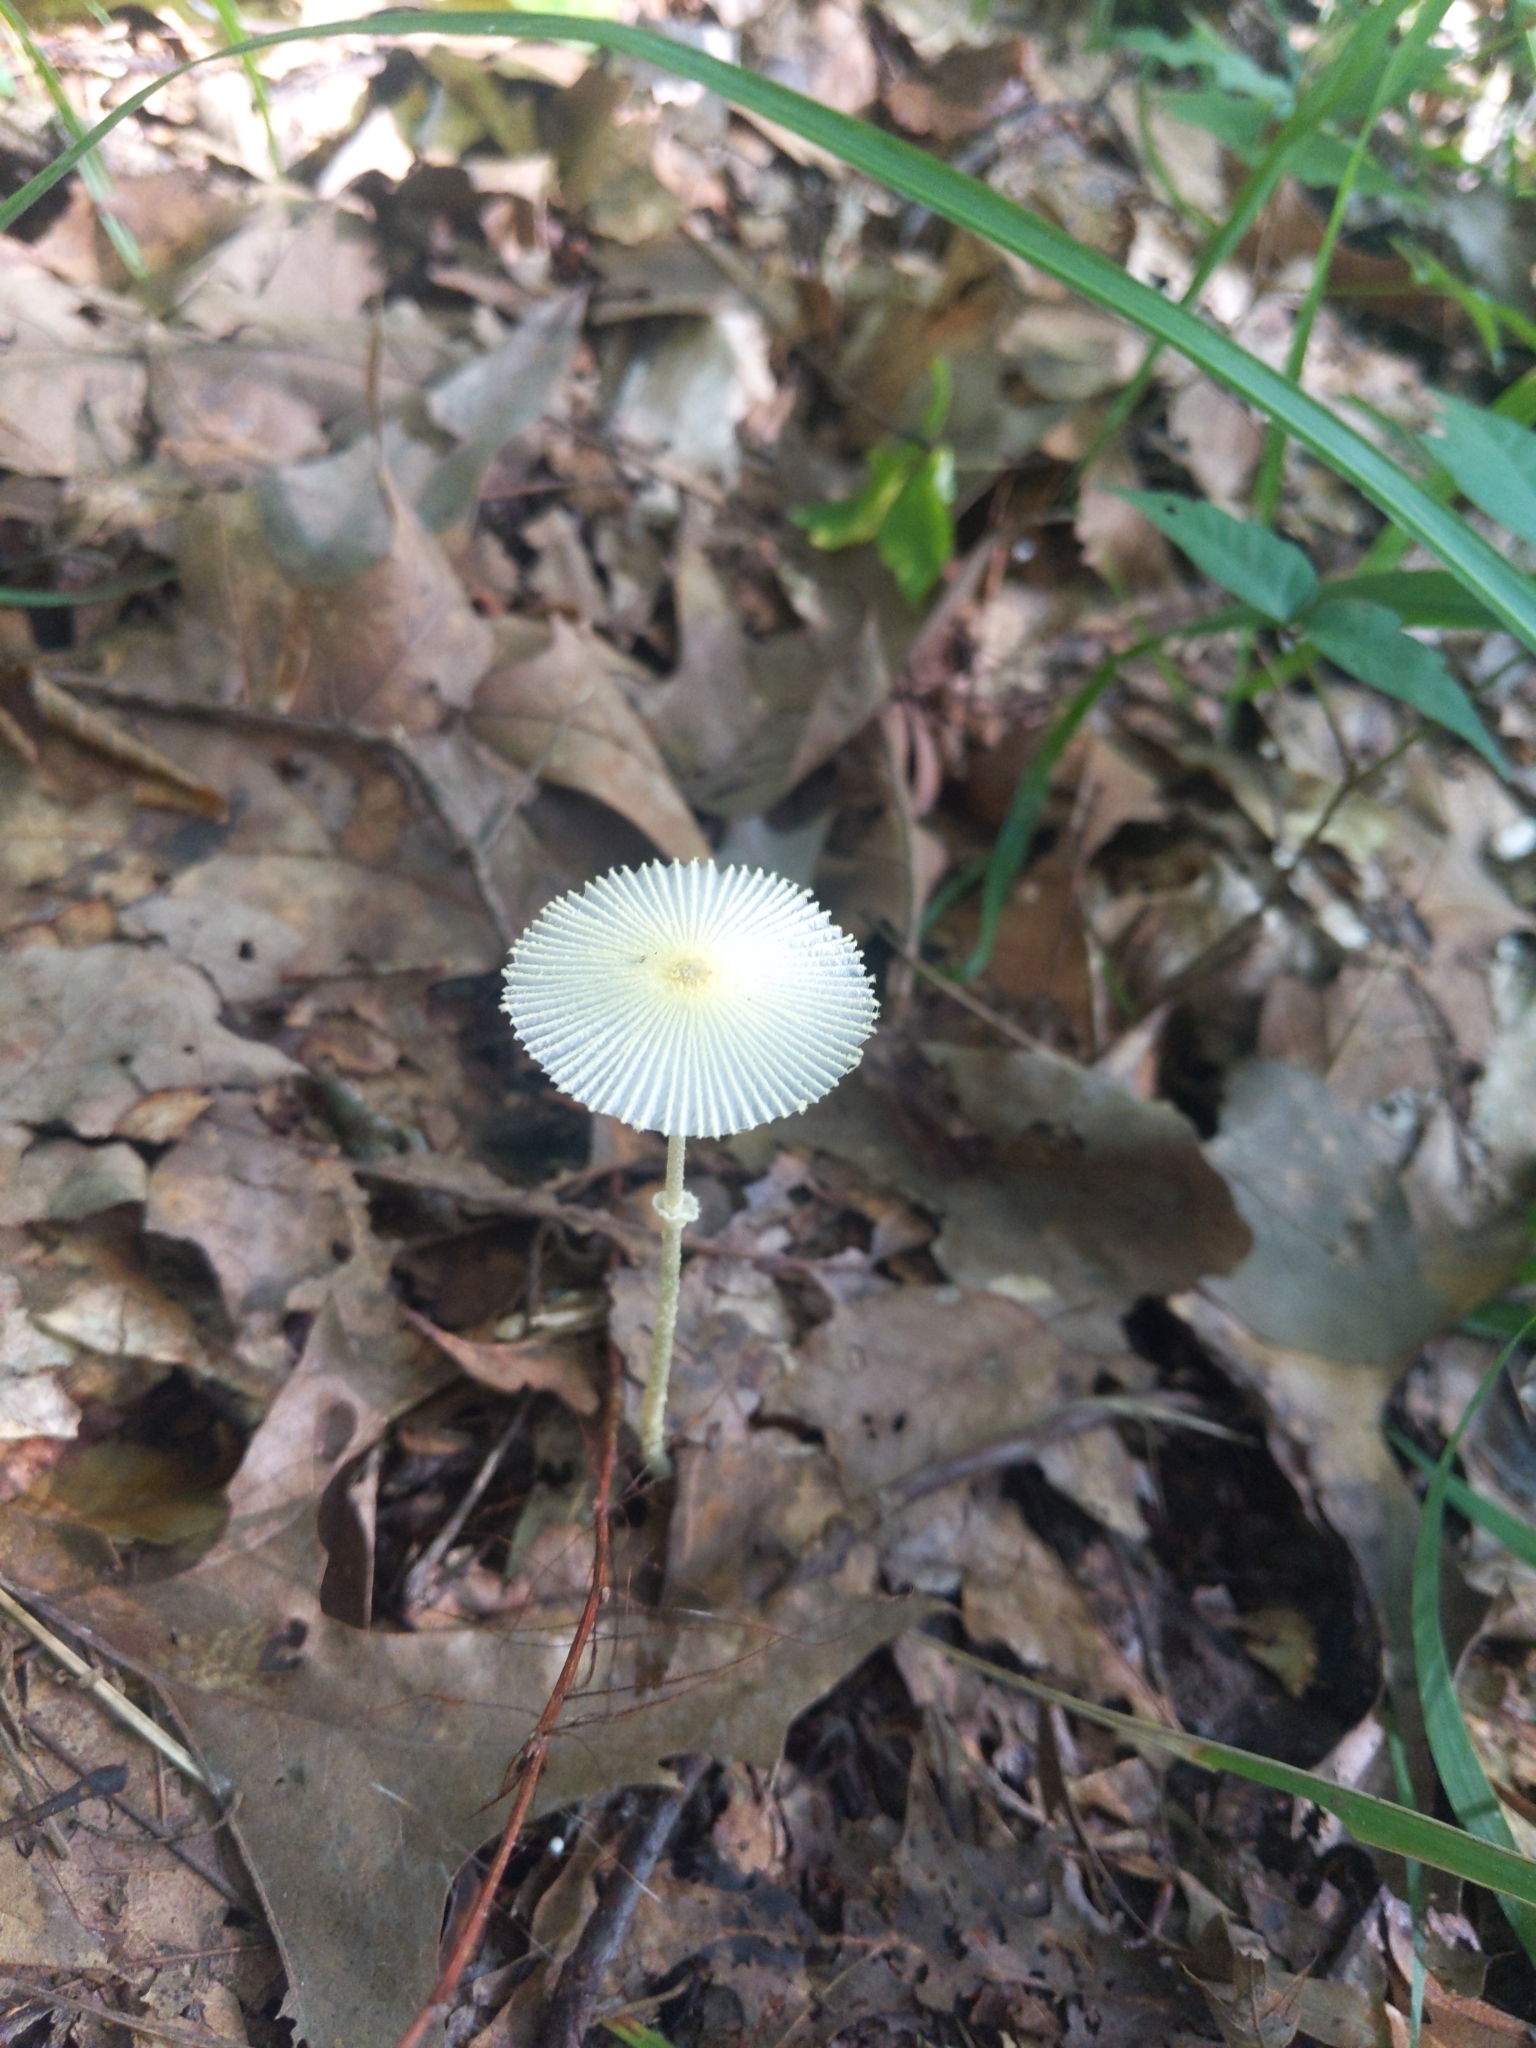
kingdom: Fungi
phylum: Basidiomycota
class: Agaricomycetes
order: Agaricales
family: Agaricaceae
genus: Leucocoprinus
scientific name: Leucocoprinus fragilissimus
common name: Fragile dapperling
